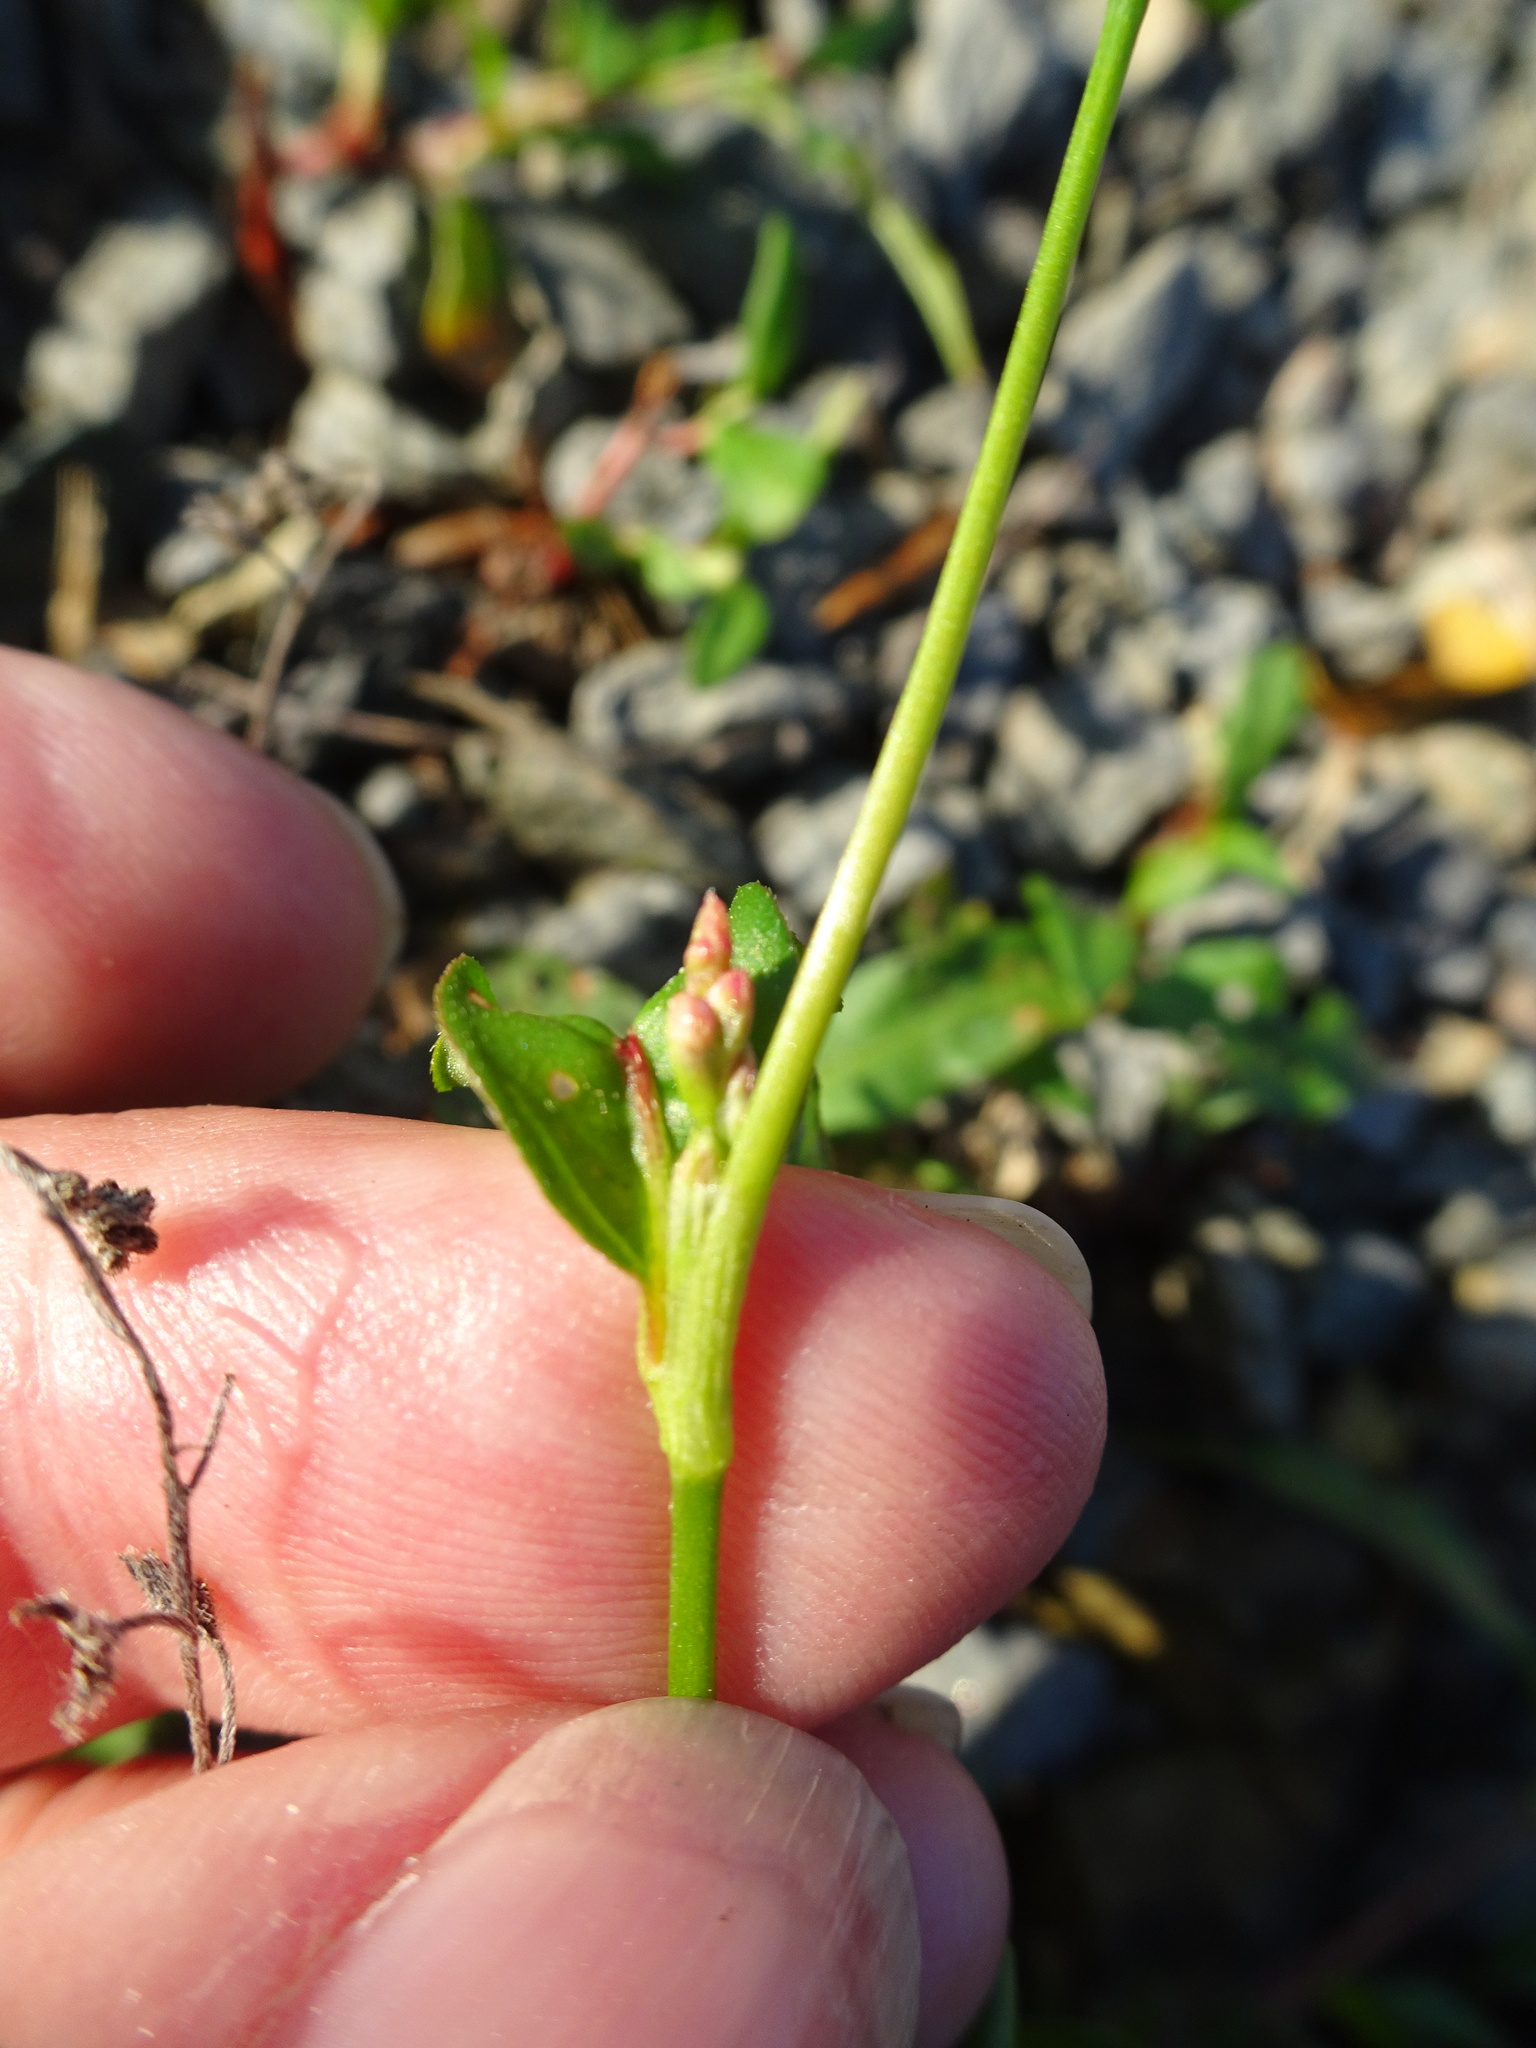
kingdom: Plantae
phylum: Tracheophyta
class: Magnoliopsida
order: Caryophyllales
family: Polygonaceae
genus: Persicaria
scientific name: Persicaria maculosa
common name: Redshank
